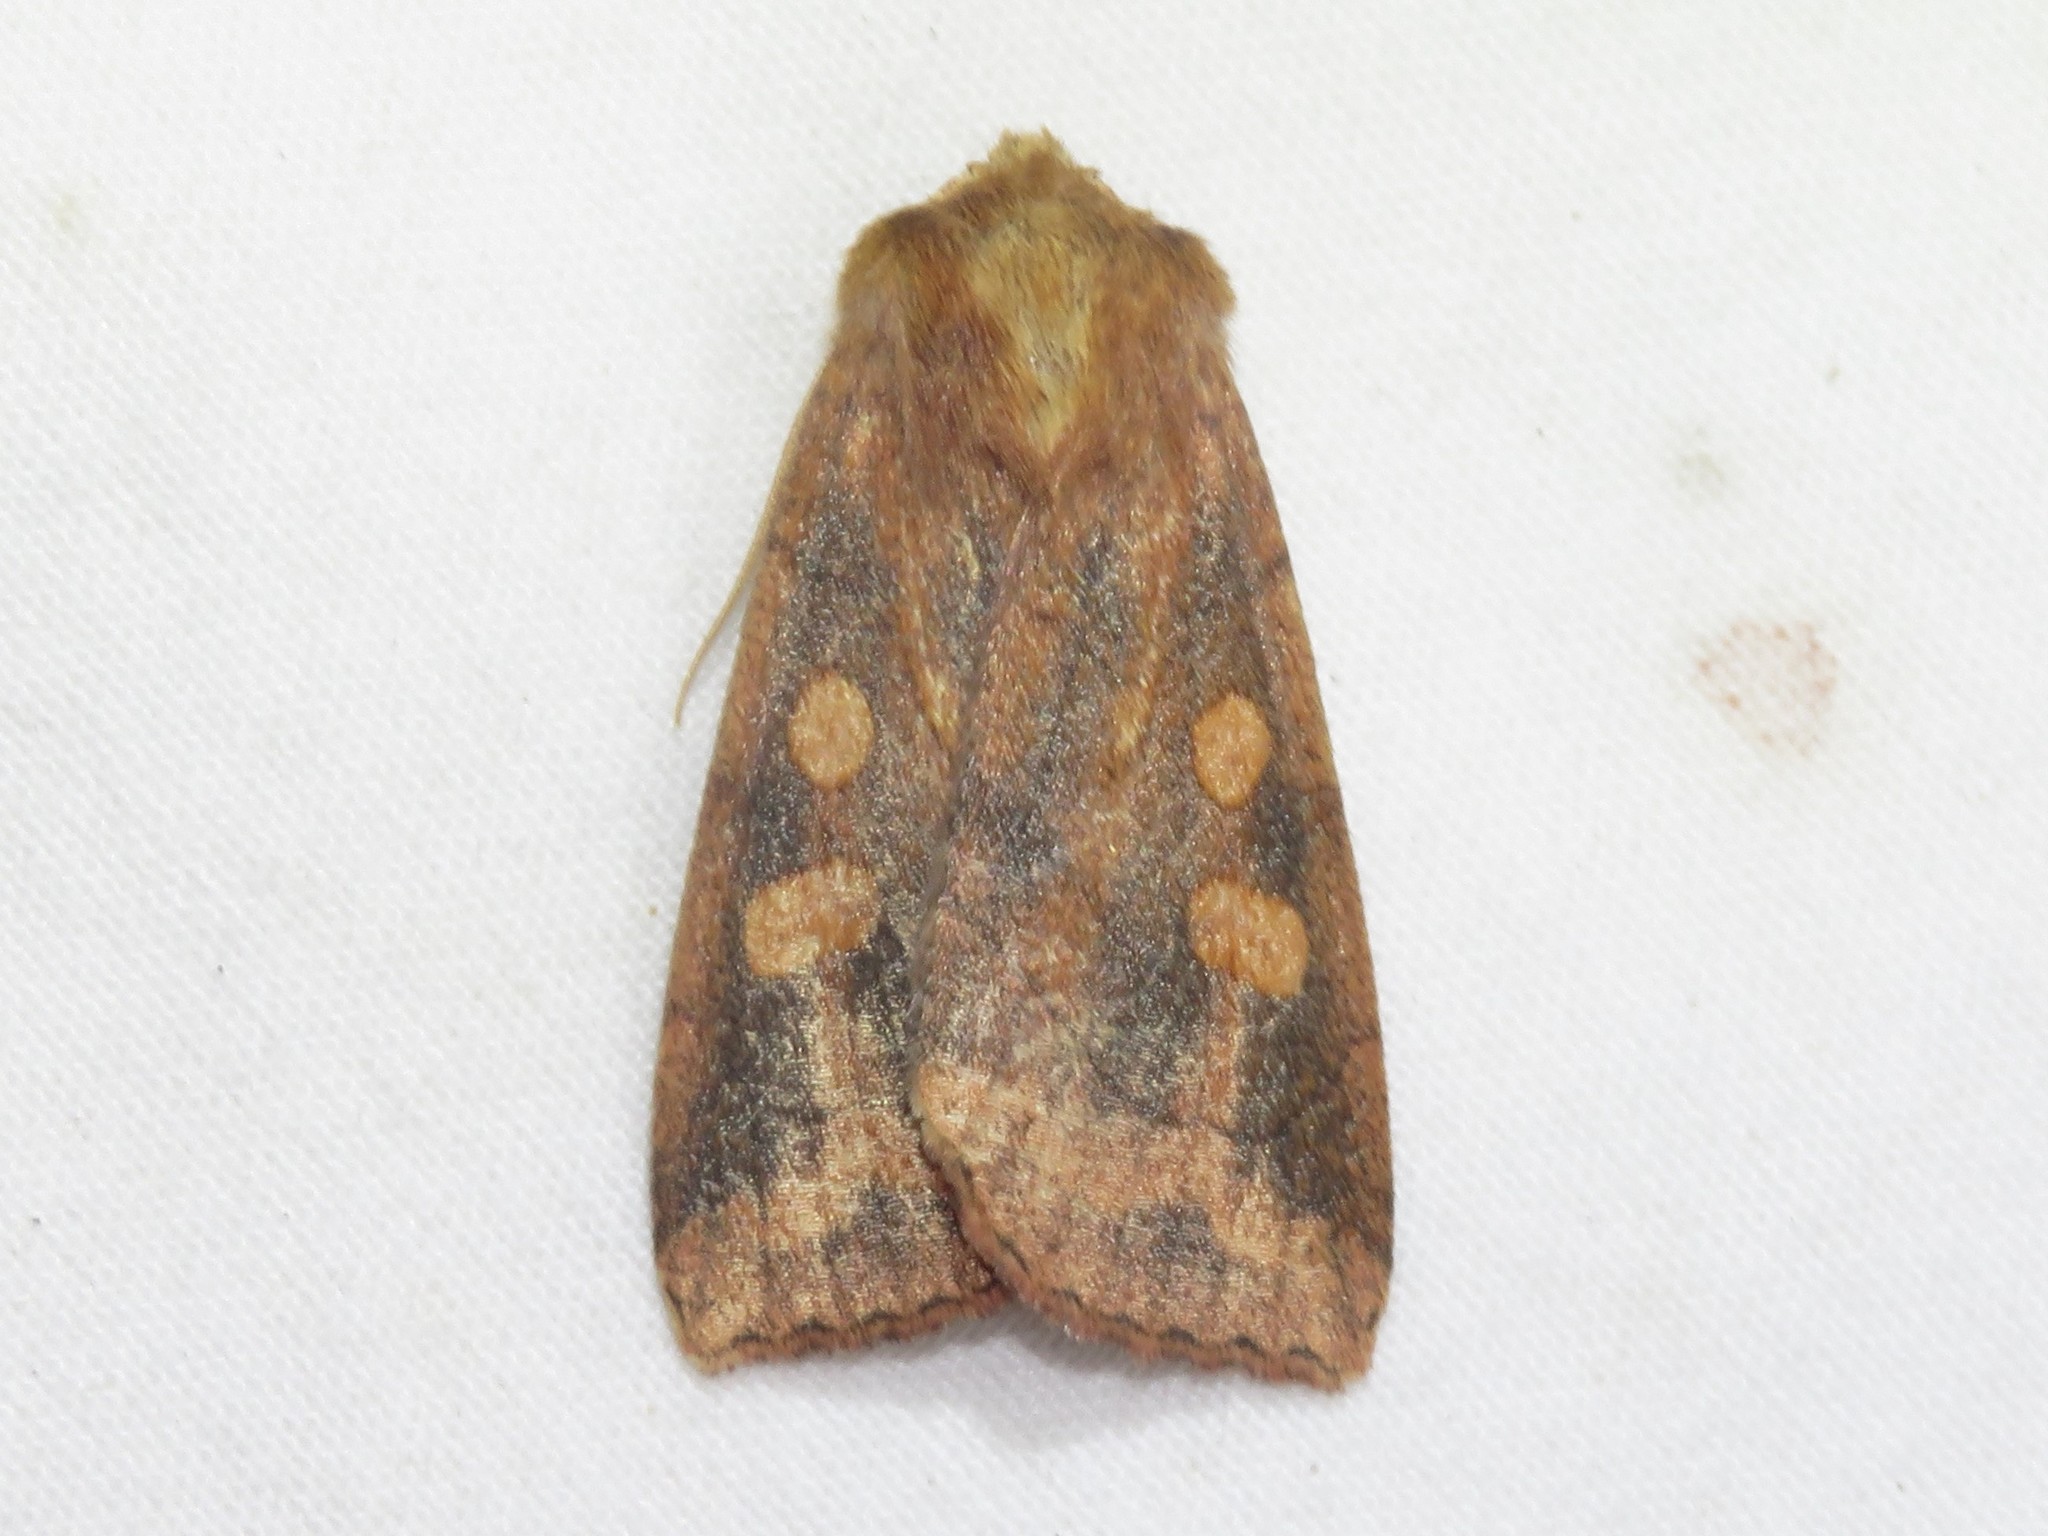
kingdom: Animalia
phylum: Arthropoda
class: Insecta
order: Lepidoptera
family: Noctuidae
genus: Enargia
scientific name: Enargia decolor
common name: Aspen twoleaf tier moth
